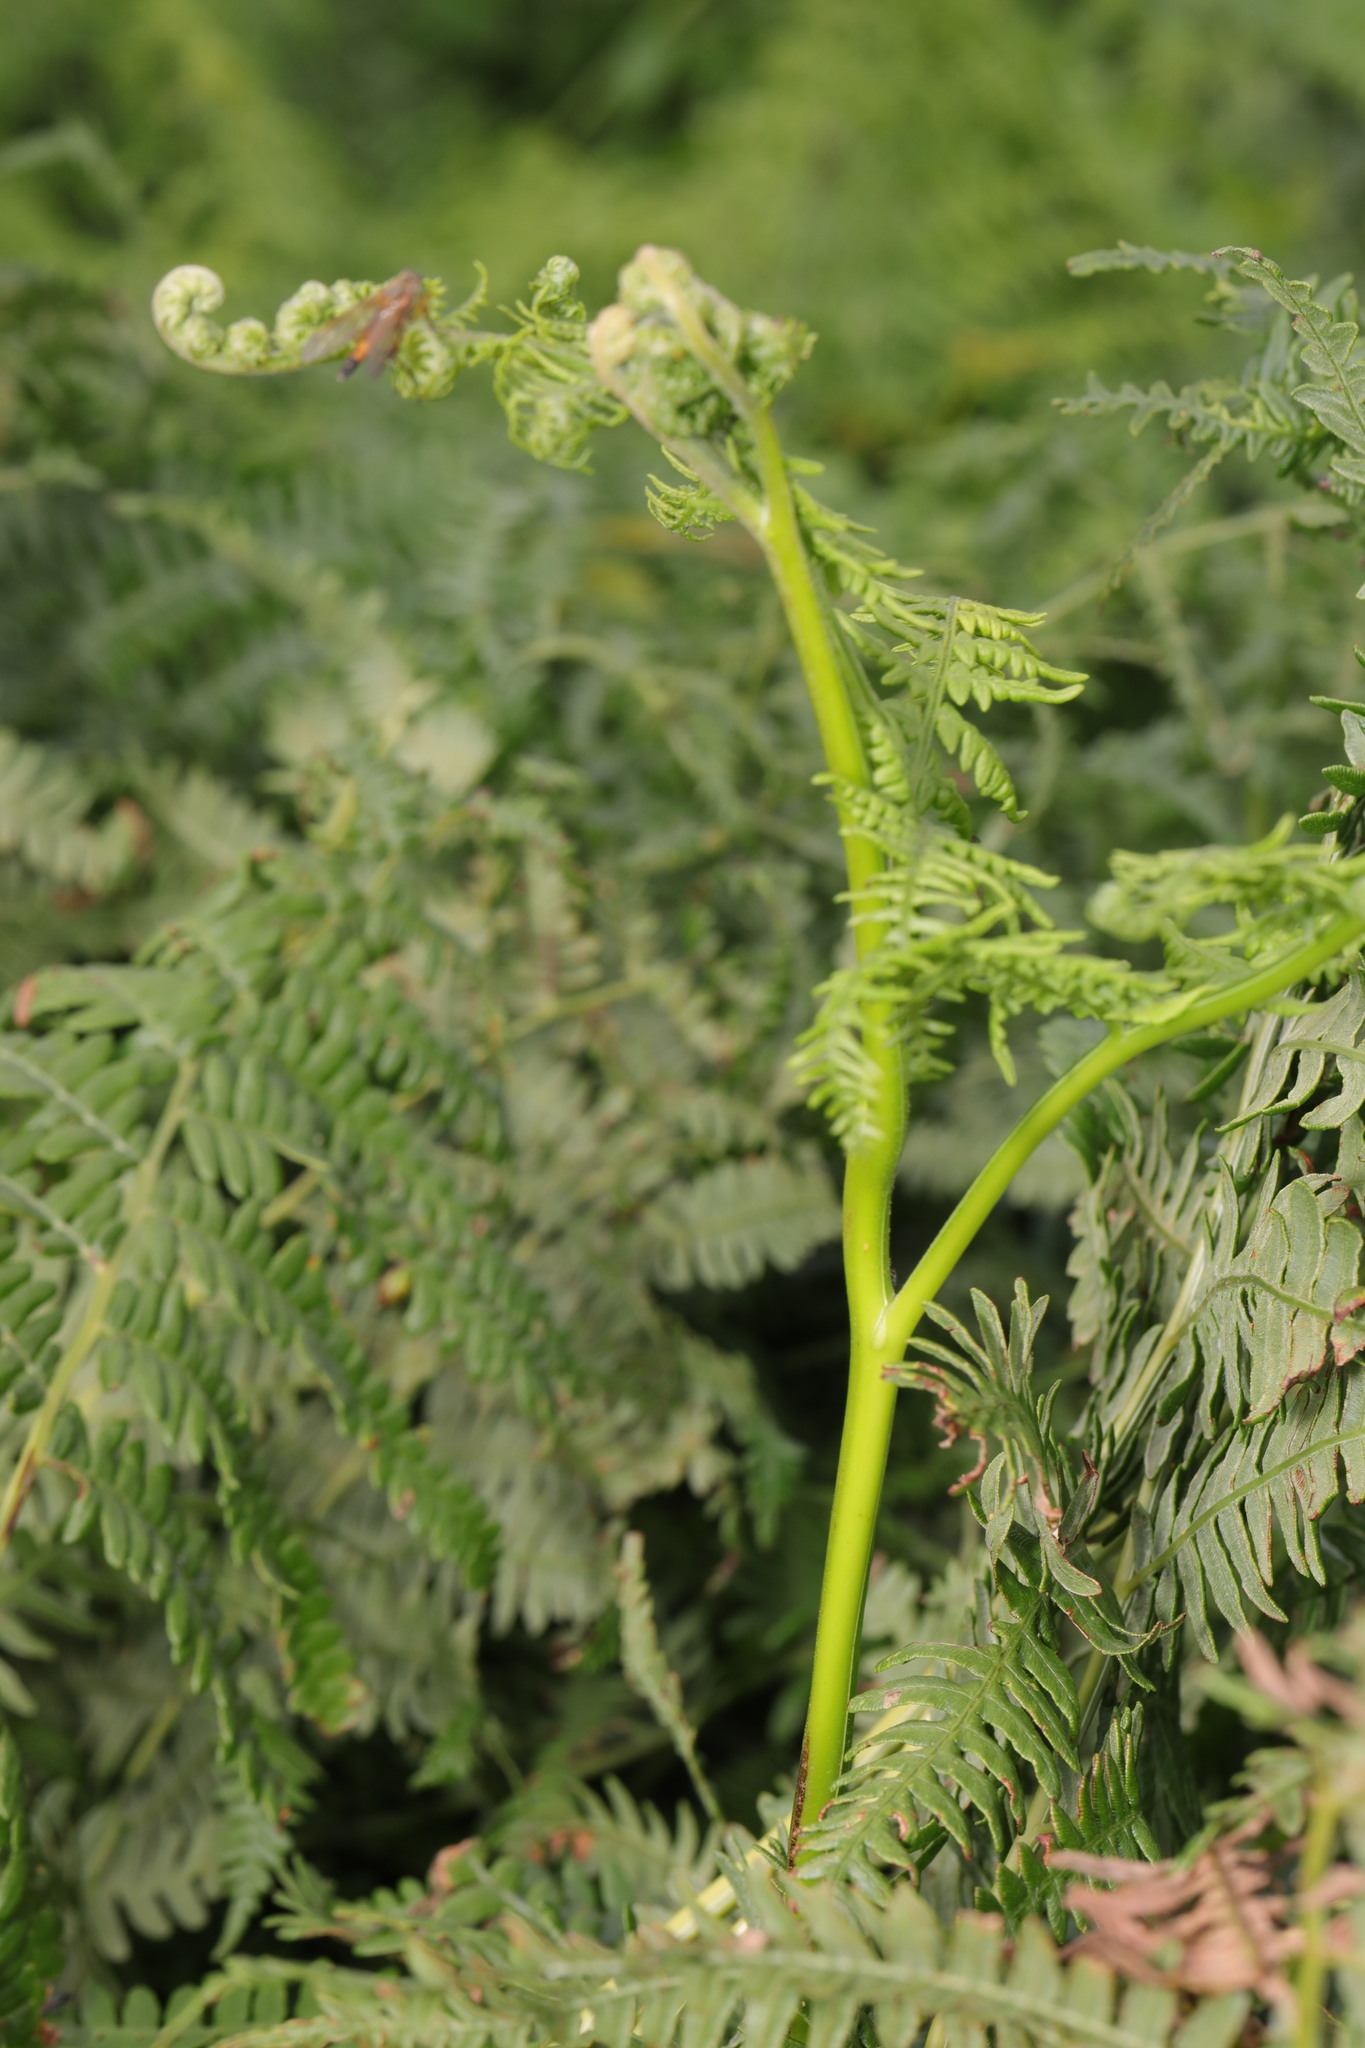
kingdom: Plantae
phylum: Tracheophyta
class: Polypodiopsida
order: Polypodiales
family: Dennstaedtiaceae
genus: Pteridium
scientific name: Pteridium aquilinum
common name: Bracken
